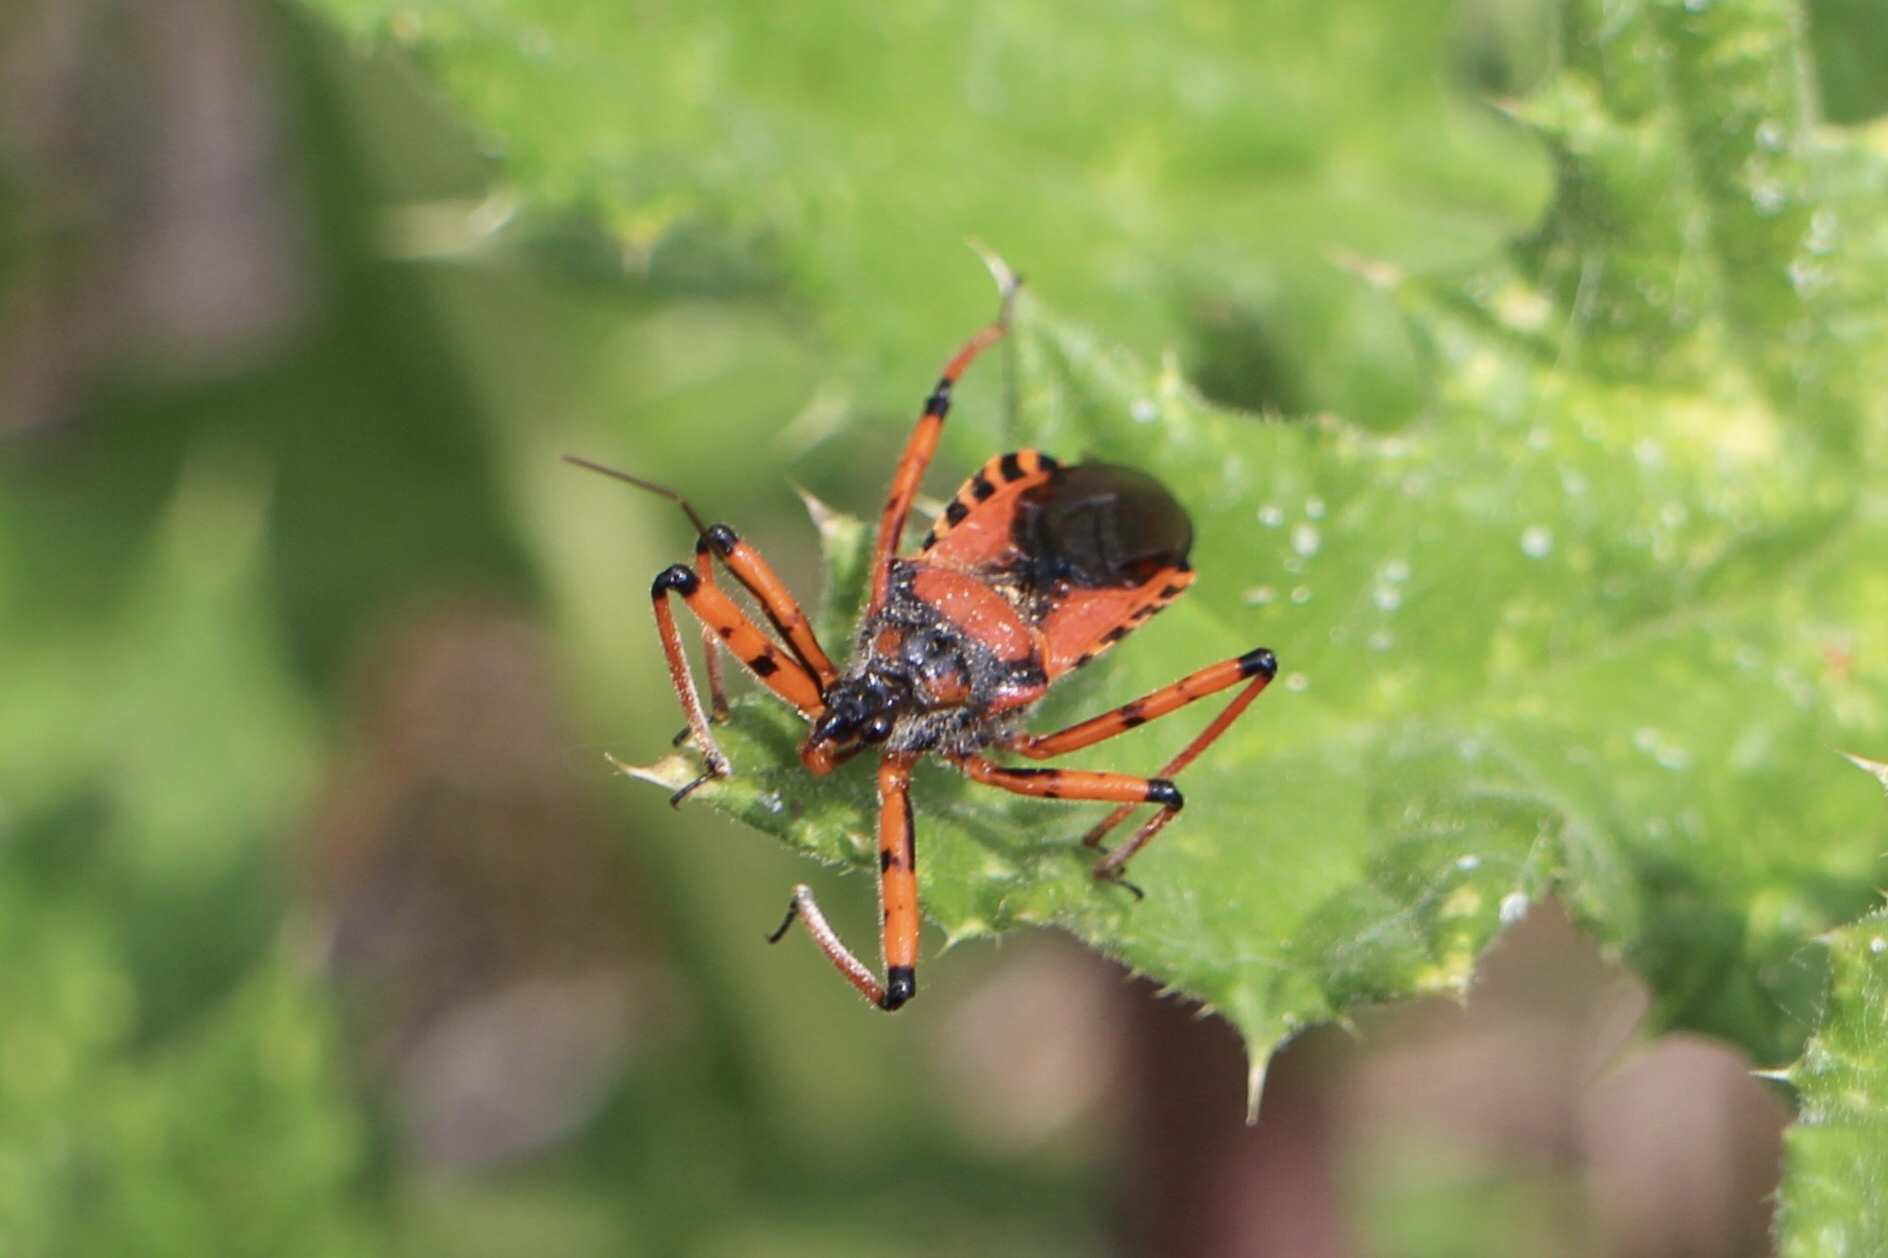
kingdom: Animalia
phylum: Arthropoda
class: Insecta
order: Hemiptera
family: Reduviidae
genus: Rhynocoris
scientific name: Rhynocoris iracundus
